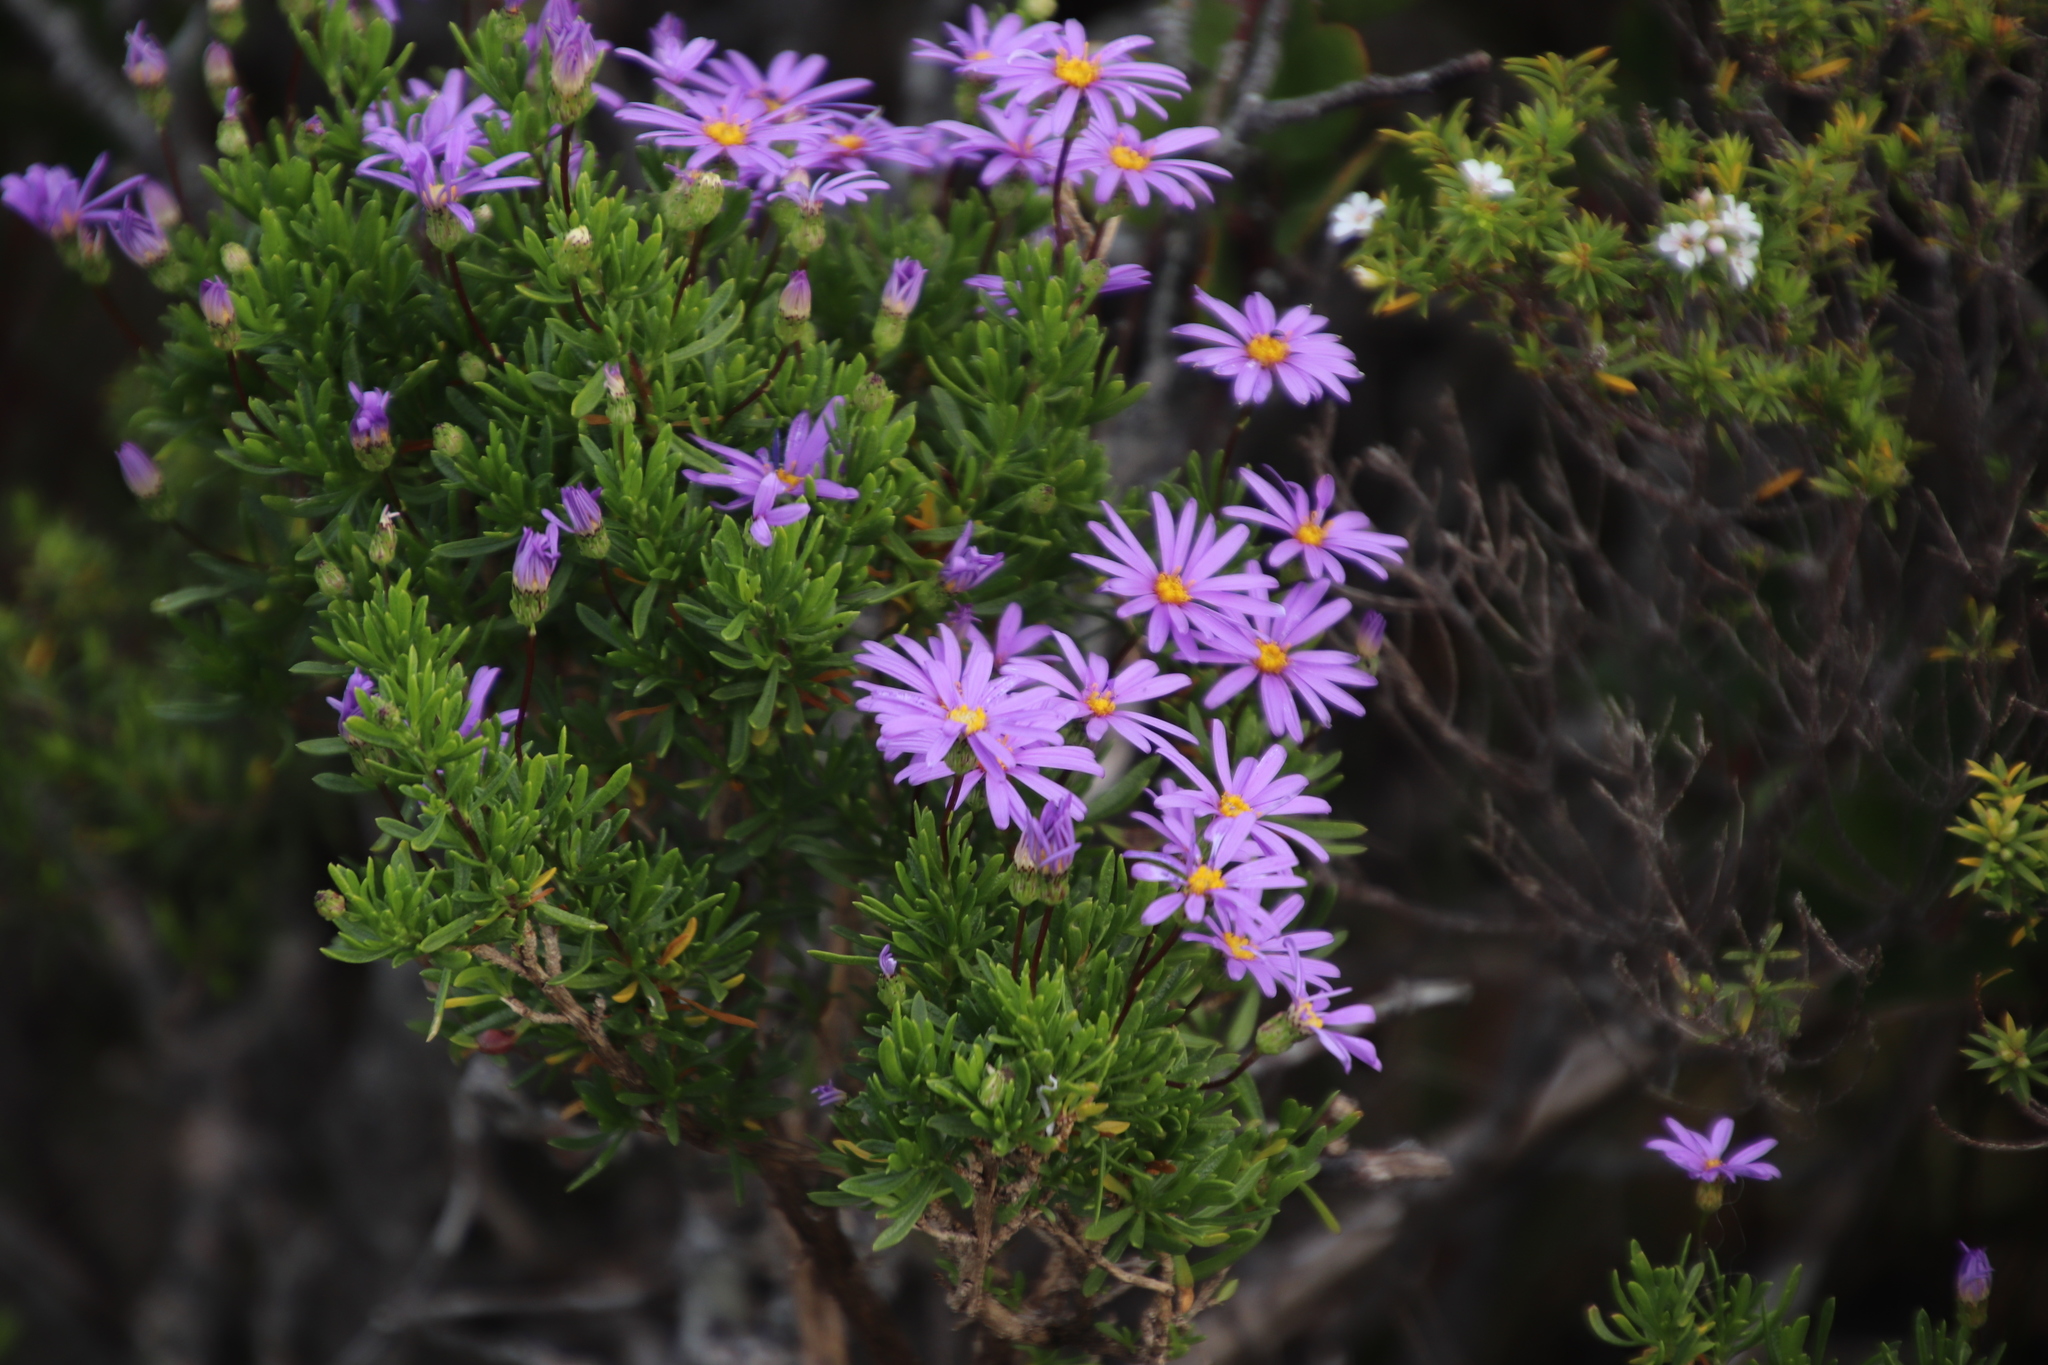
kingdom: Plantae
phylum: Tracheophyta
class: Magnoliopsida
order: Asterales
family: Asteraceae
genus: Felicia
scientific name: Felicia fruticosa
